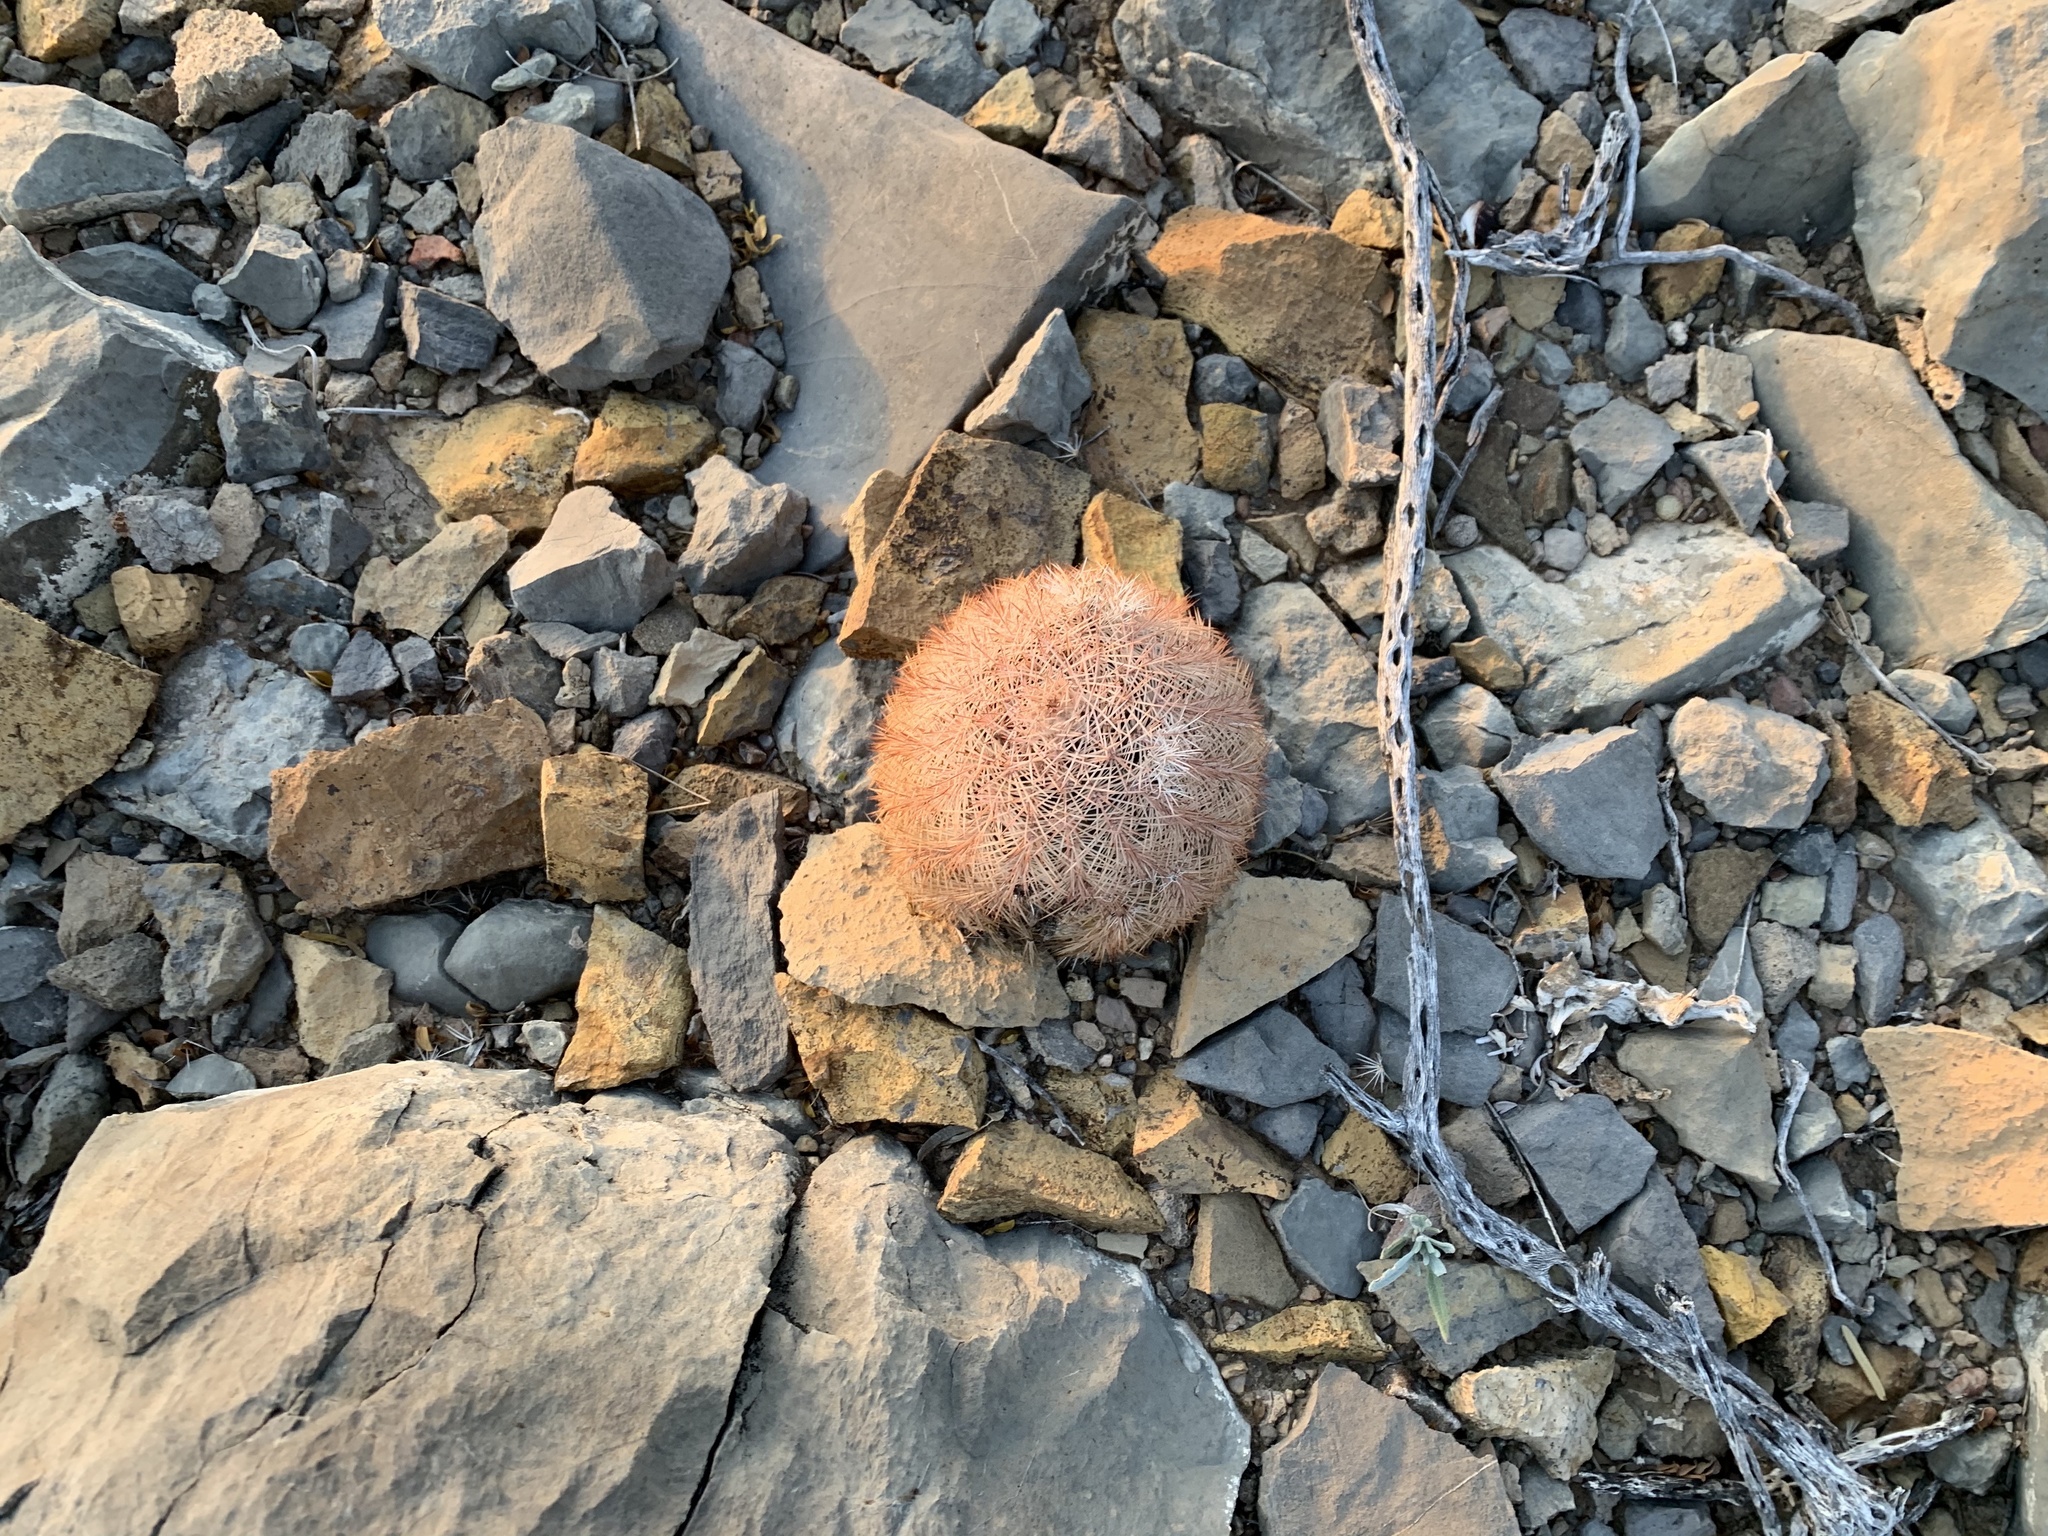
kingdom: Plantae
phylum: Tracheophyta
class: Magnoliopsida
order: Caryophyllales
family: Cactaceae
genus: Echinocereus
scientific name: Echinocereus dasyacanthus
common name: Spiny hedgehog cactus
